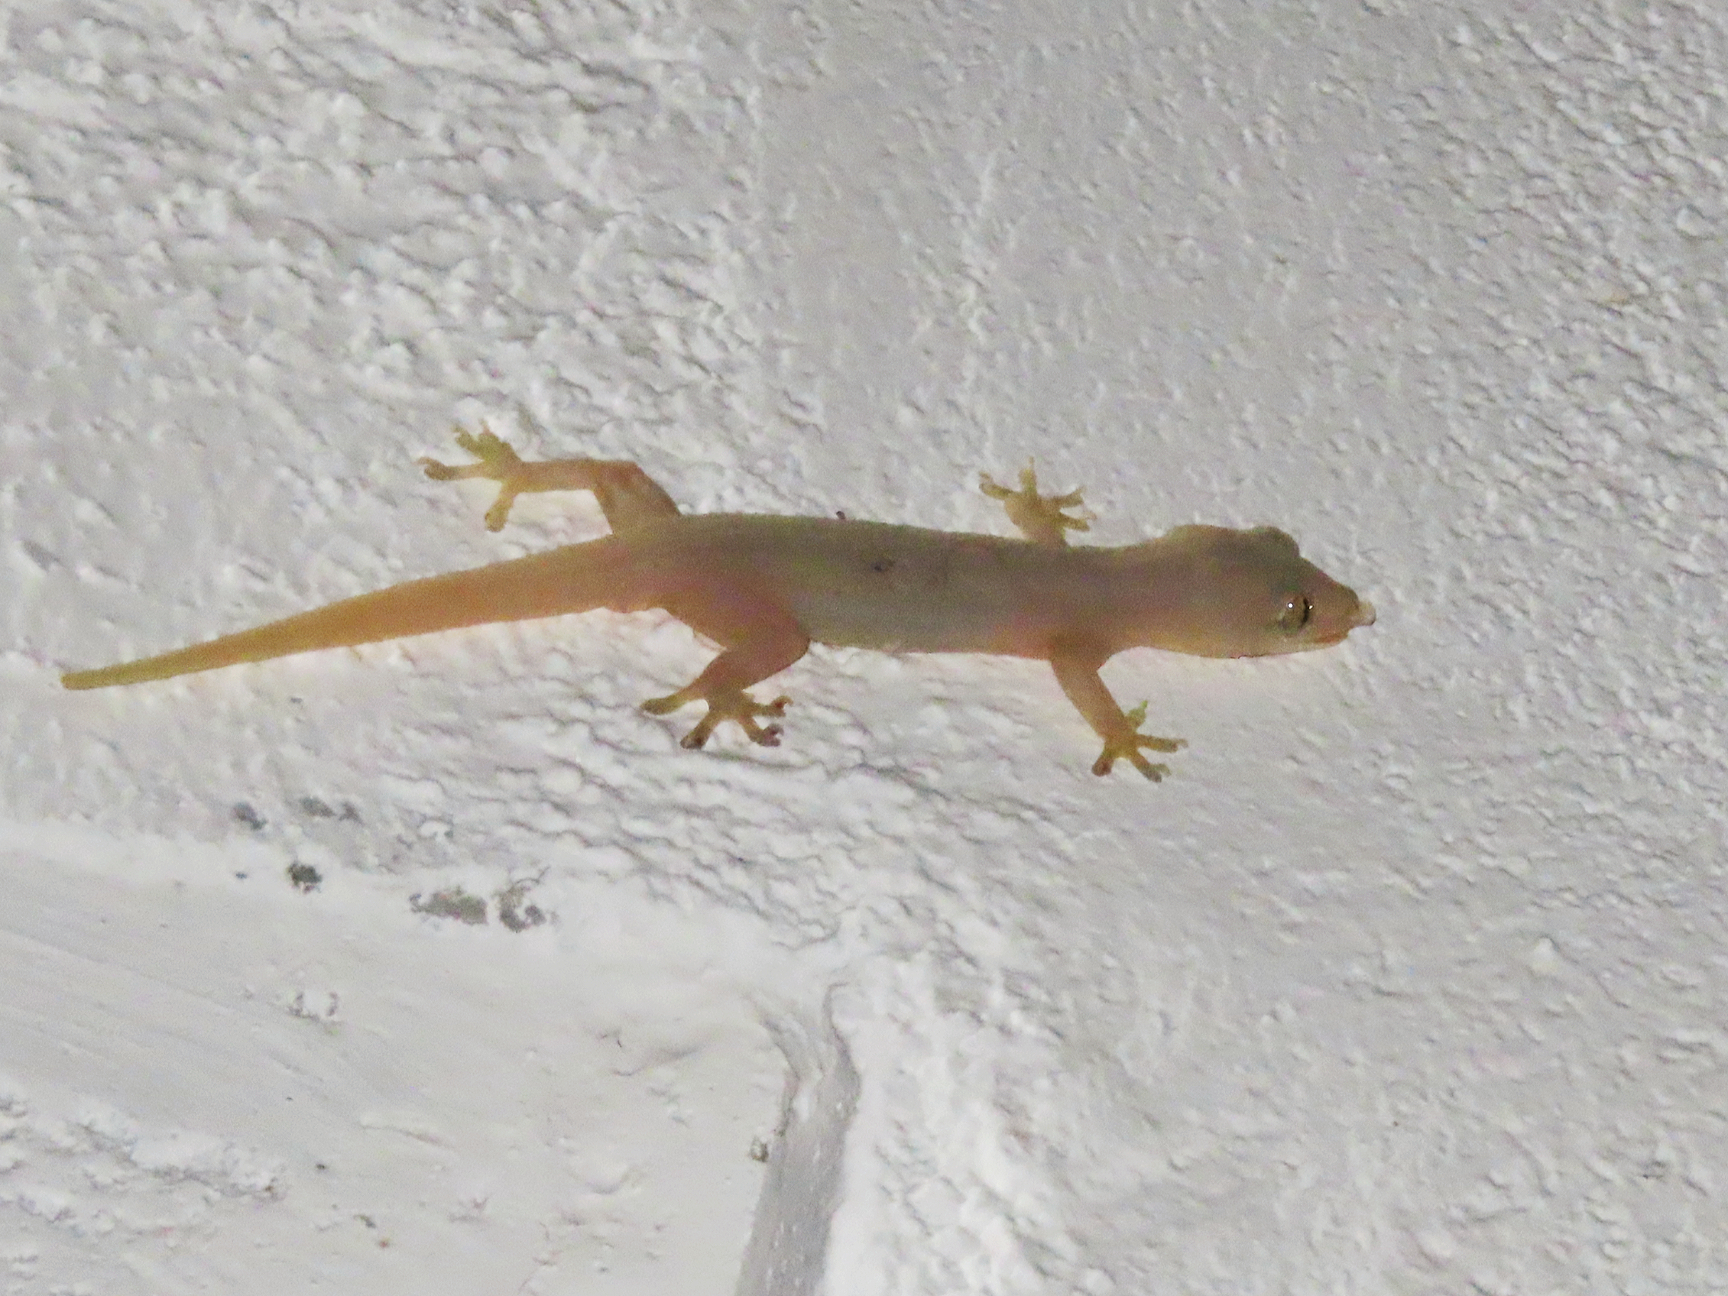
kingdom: Animalia
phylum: Chordata
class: Squamata
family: Gekkonidae
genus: Hemidactylus
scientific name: Hemidactylus frenatus
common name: Common house gecko
